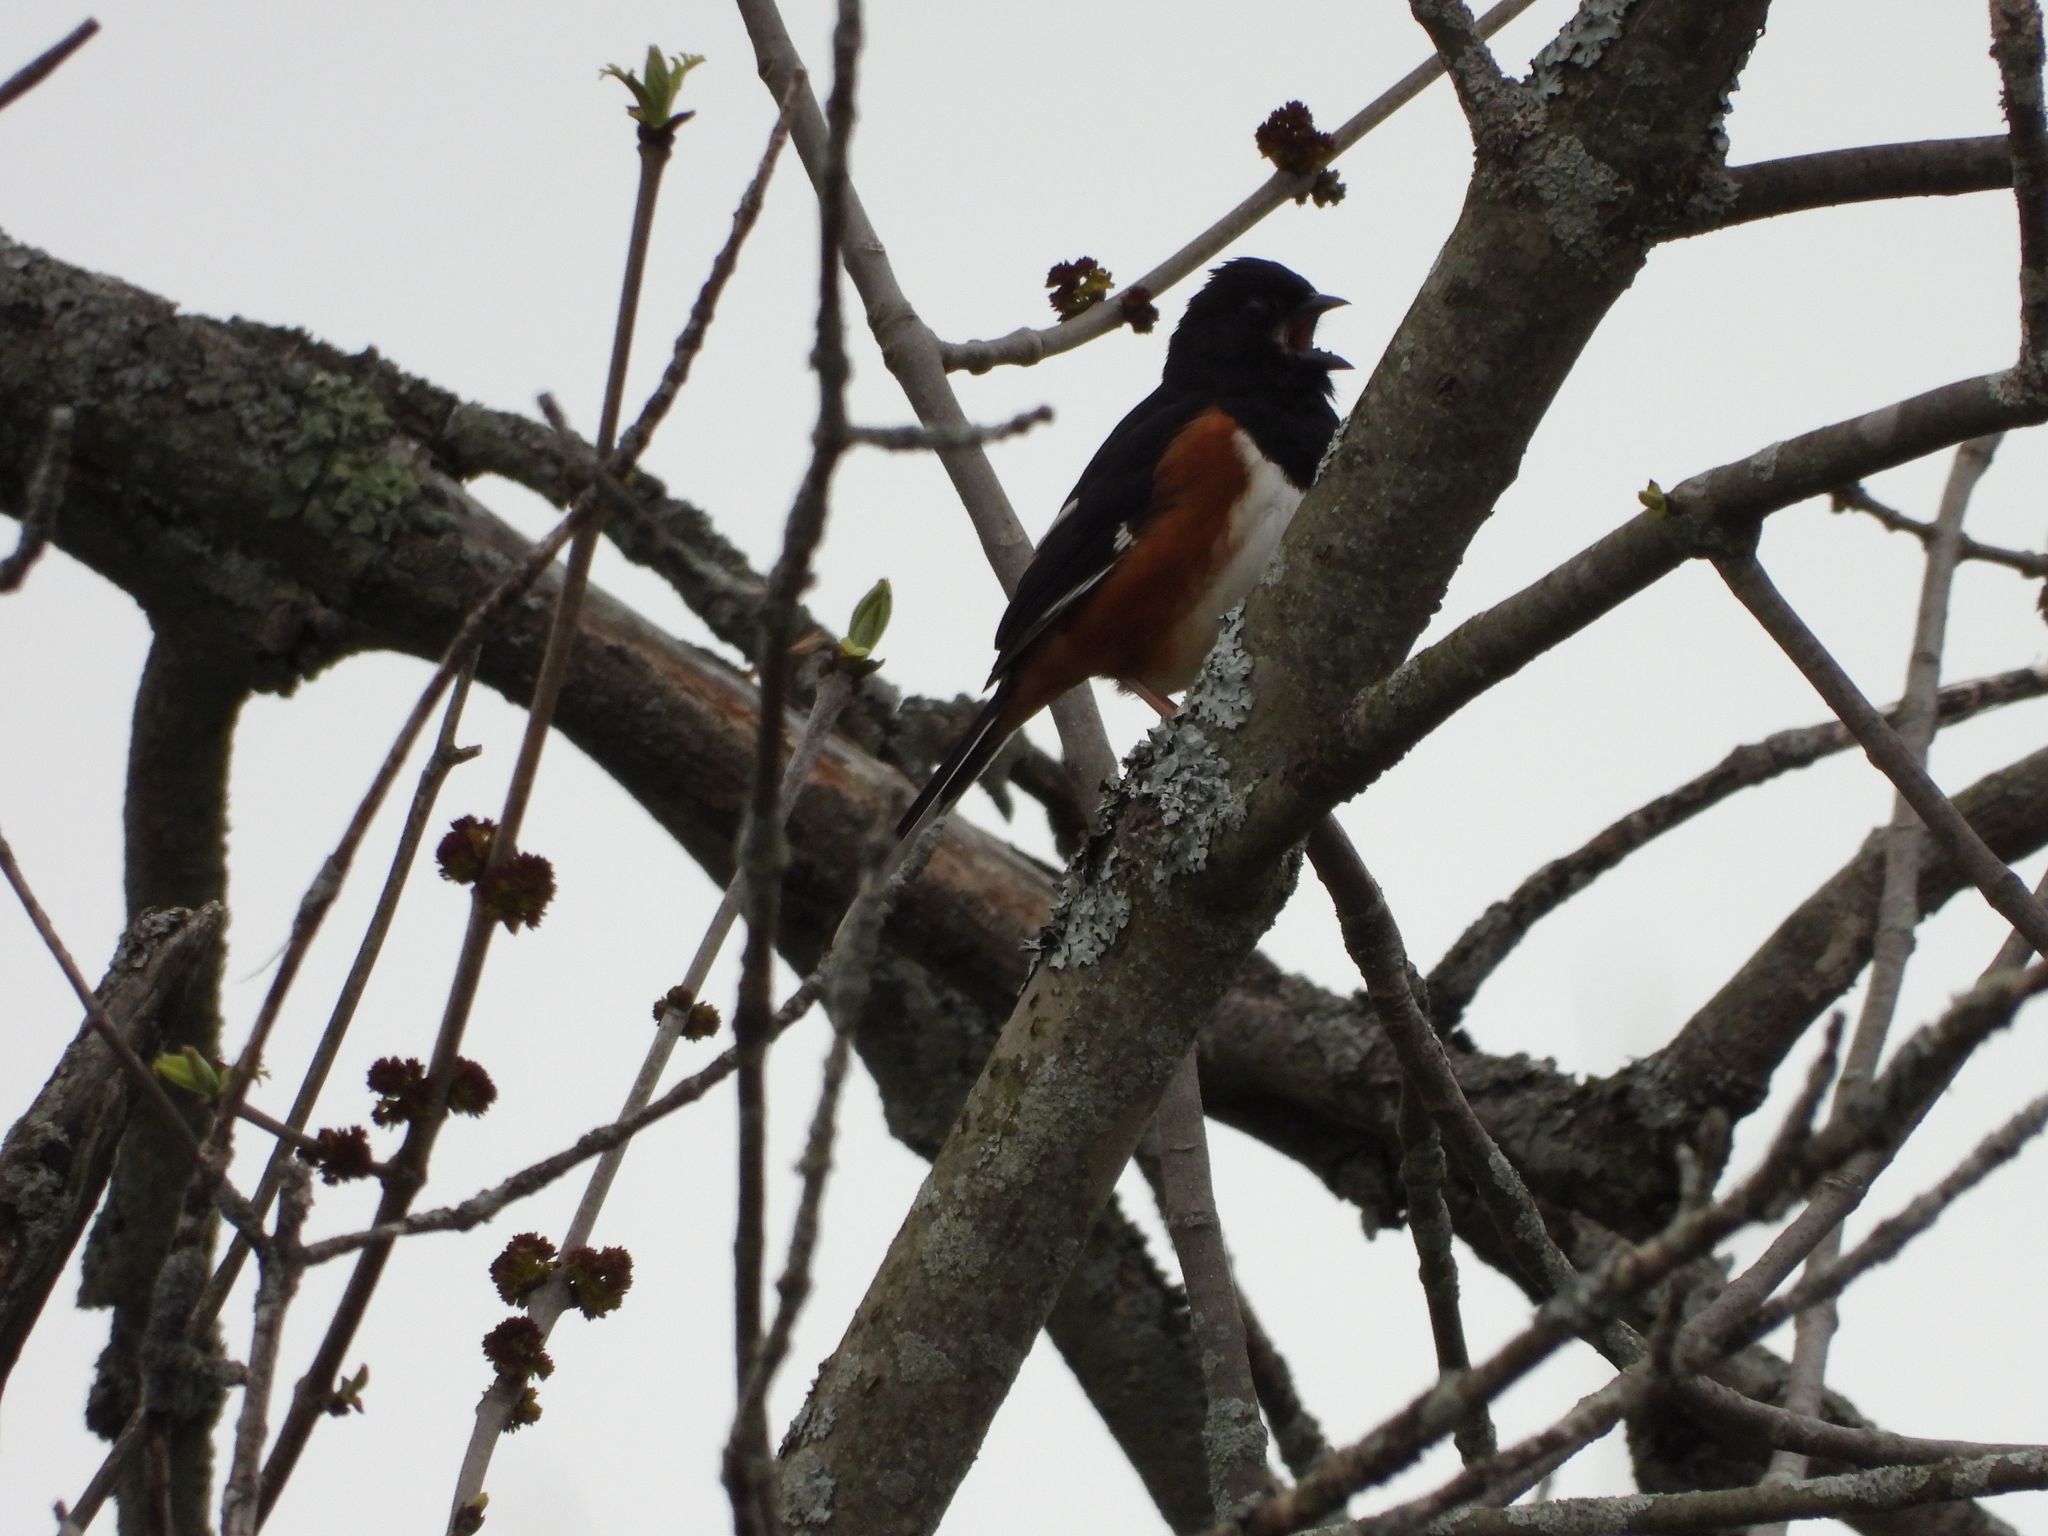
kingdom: Animalia
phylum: Chordata
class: Aves
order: Passeriformes
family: Passerellidae
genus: Pipilo
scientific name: Pipilo erythrophthalmus
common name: Eastern towhee
